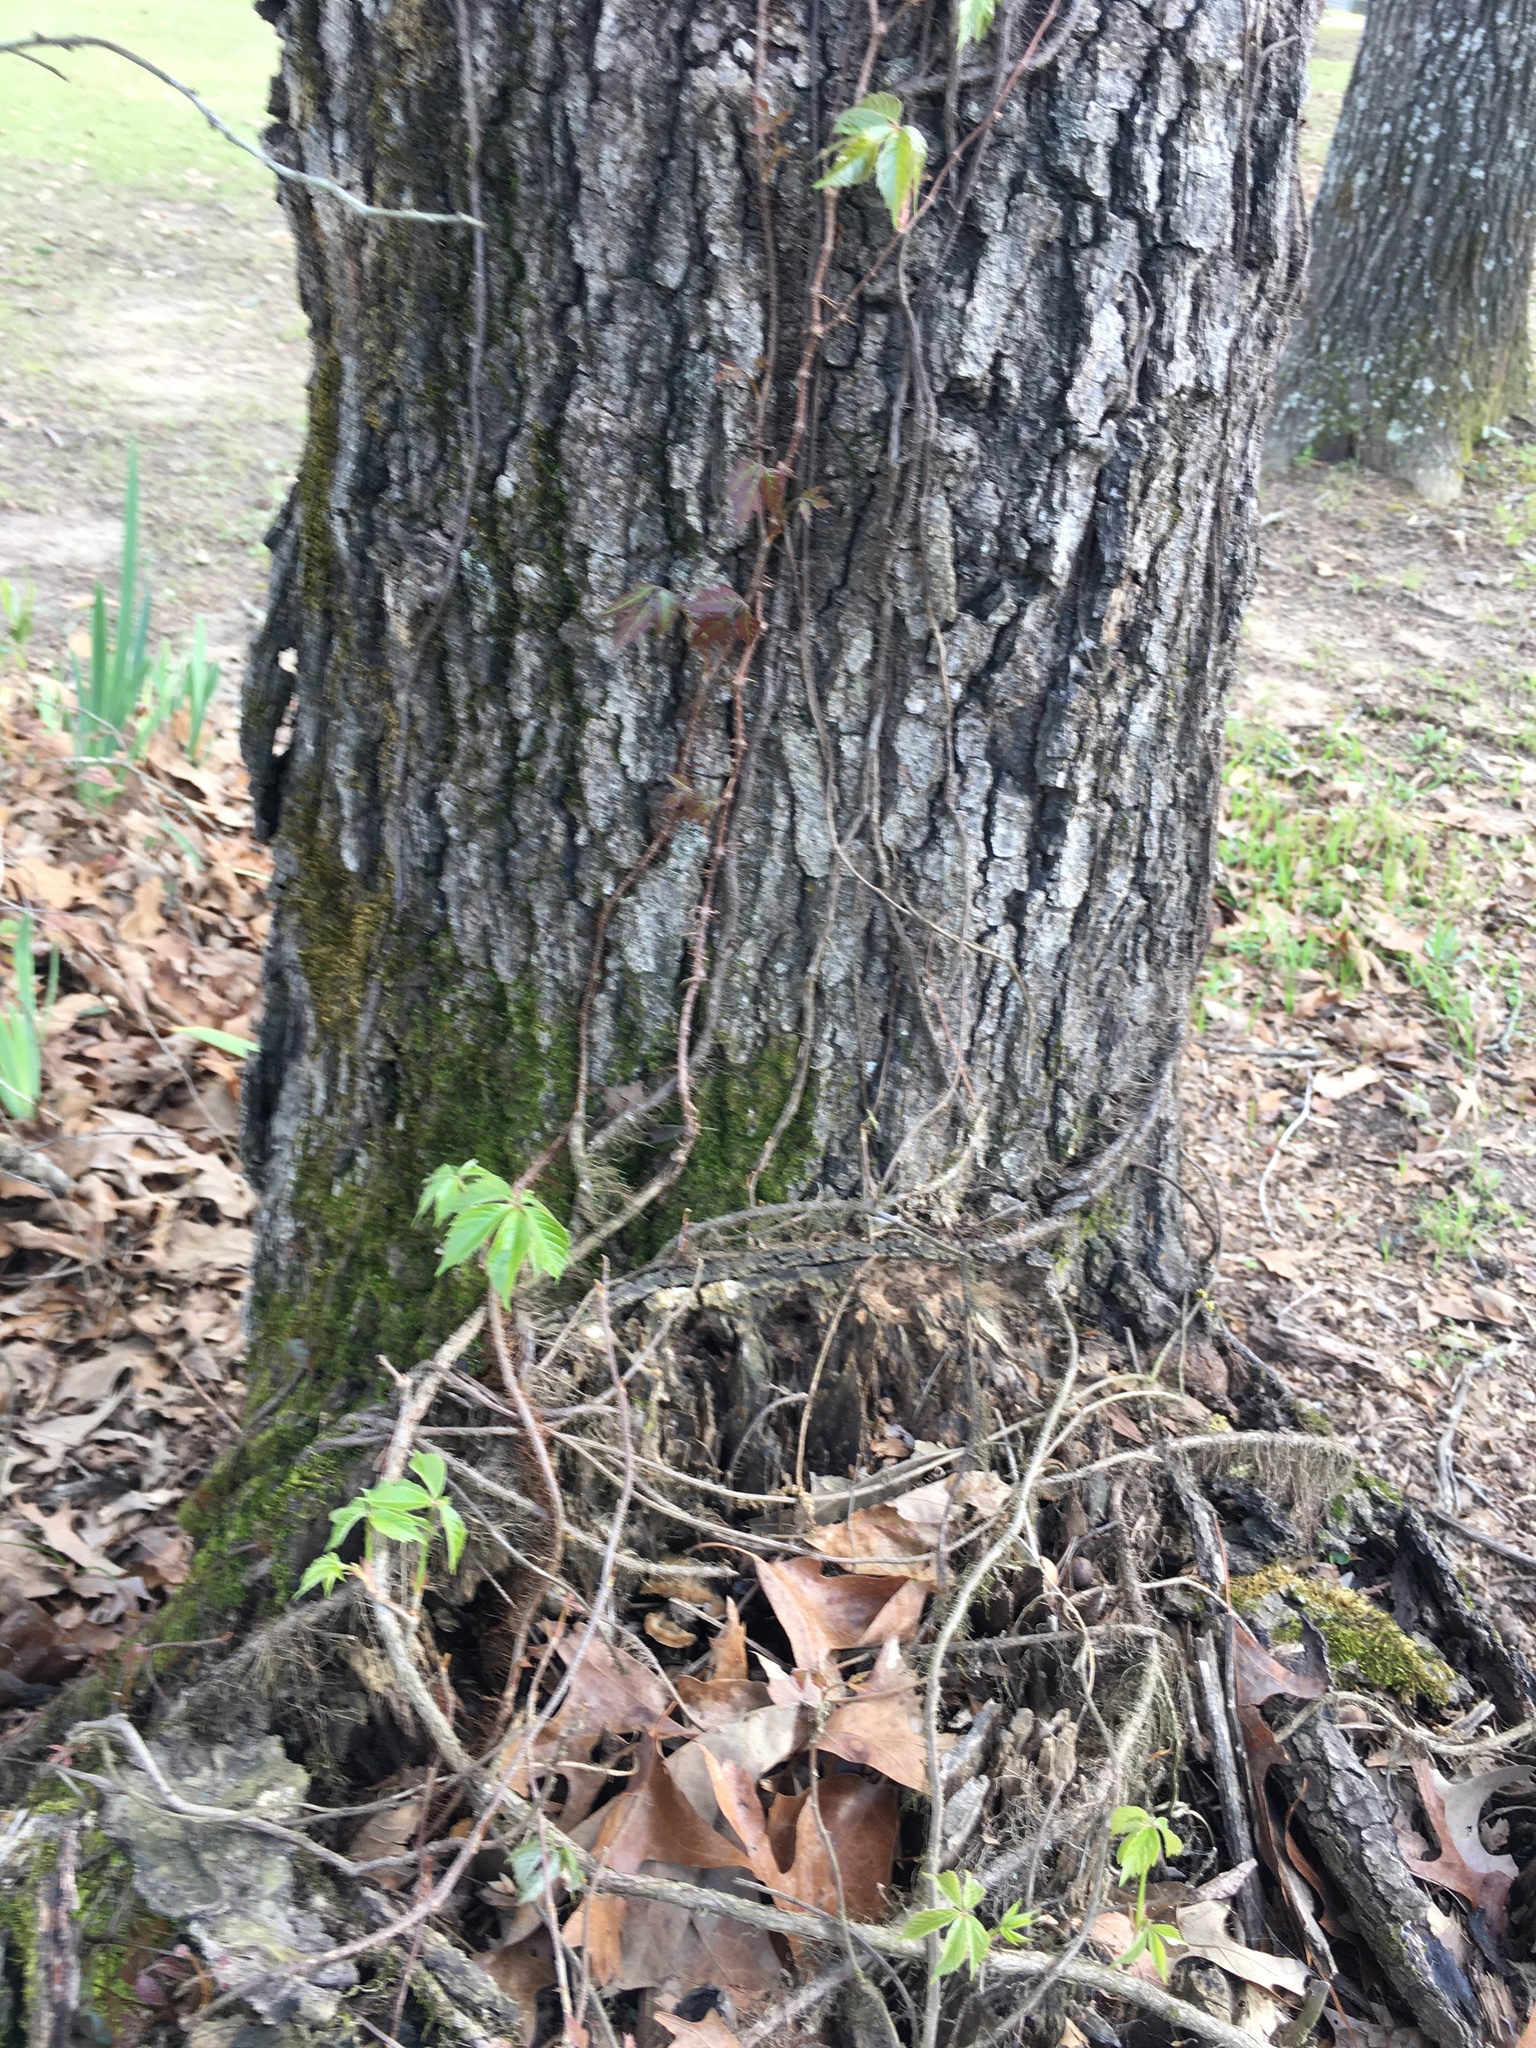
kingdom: Plantae
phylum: Tracheophyta
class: Magnoliopsida
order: Vitales
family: Vitaceae
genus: Parthenocissus
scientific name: Parthenocissus quinquefolia
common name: Virginia-creeper
